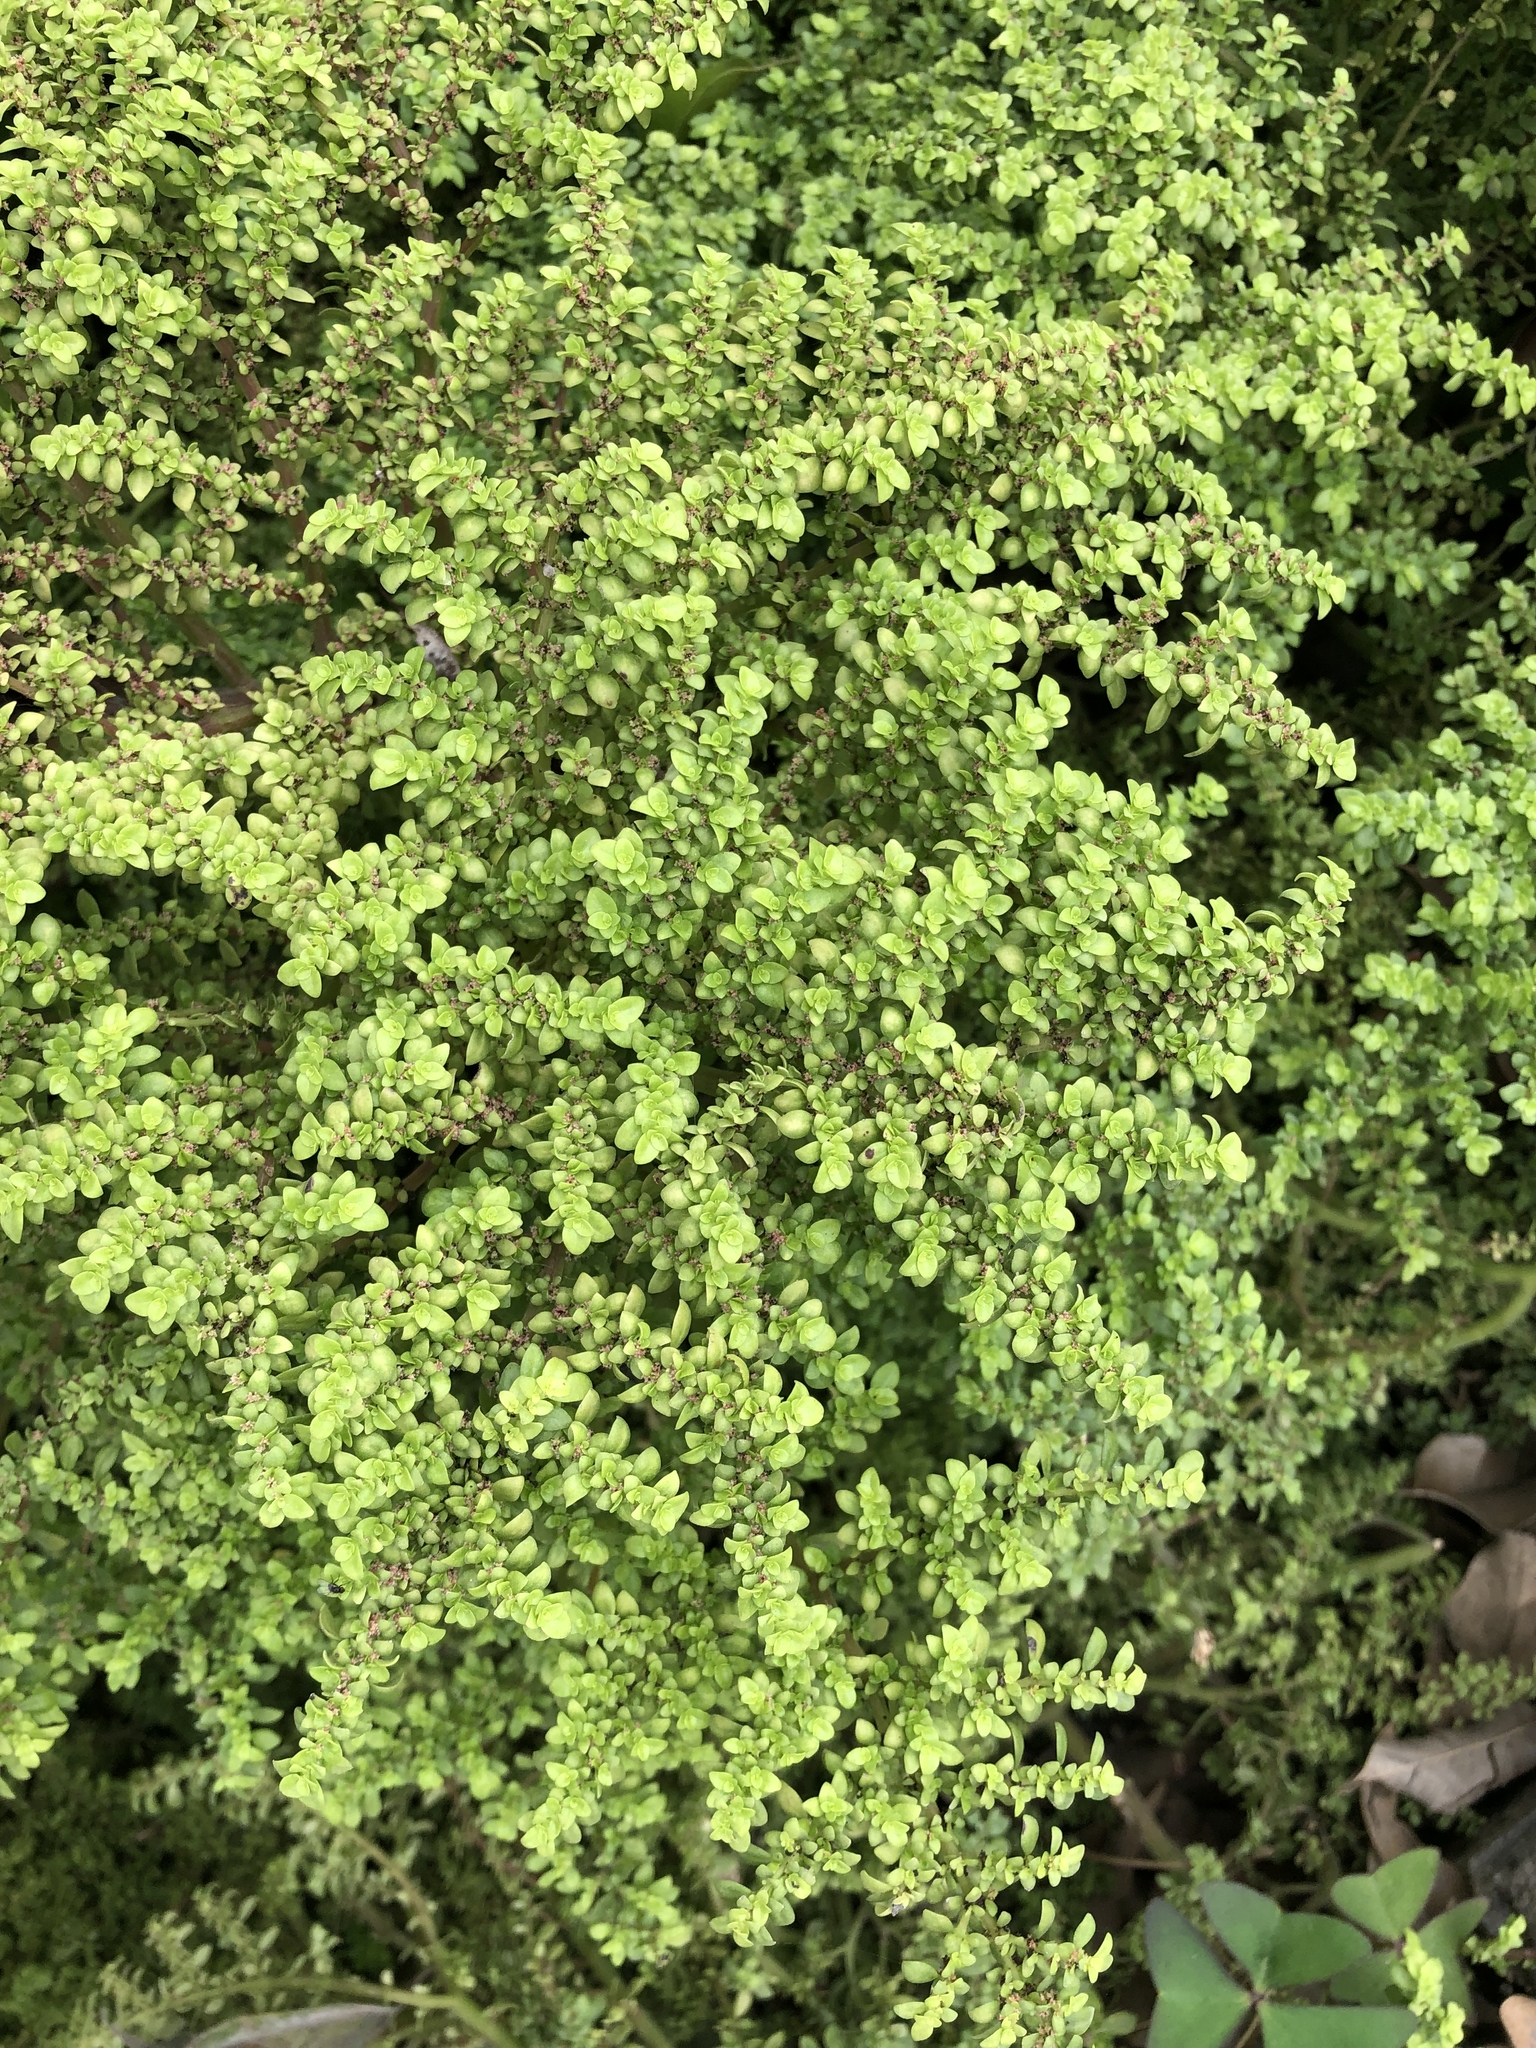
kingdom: Plantae
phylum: Tracheophyta
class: Magnoliopsida
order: Rosales
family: Urticaceae
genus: Pilea
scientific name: Pilea microphylla
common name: Artillery-plant
